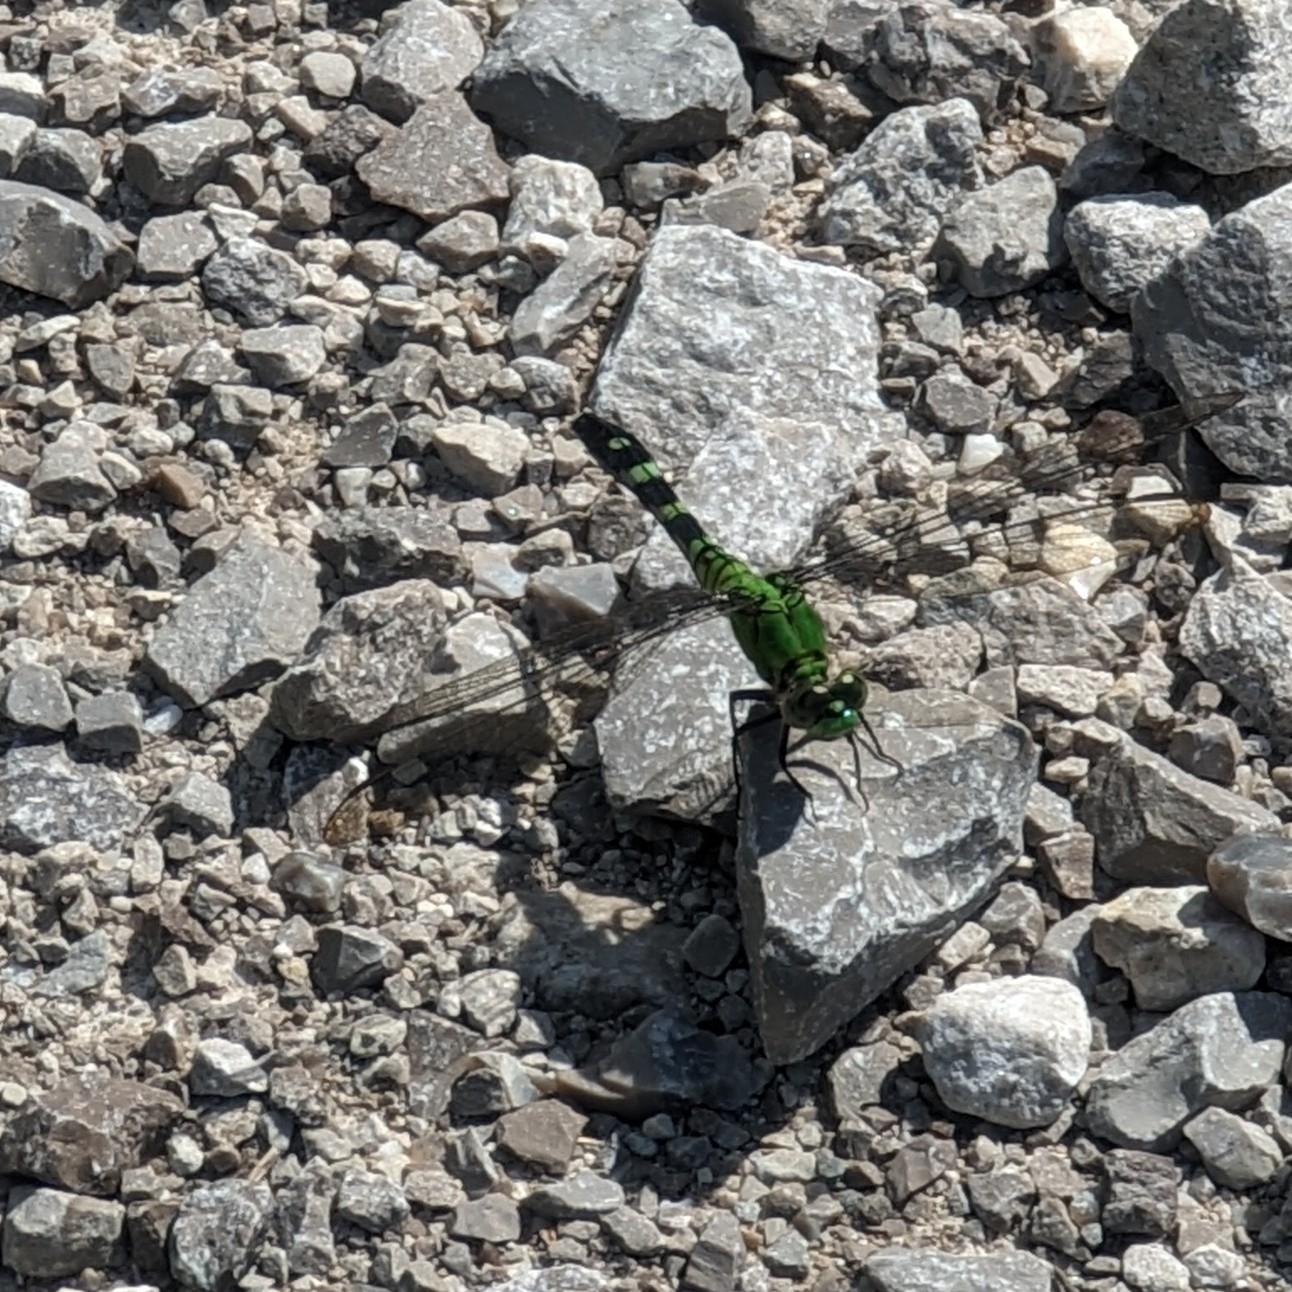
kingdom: Animalia
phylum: Arthropoda
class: Insecta
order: Odonata
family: Libellulidae
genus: Erythemis
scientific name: Erythemis simplicicollis
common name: Eastern pondhawk
